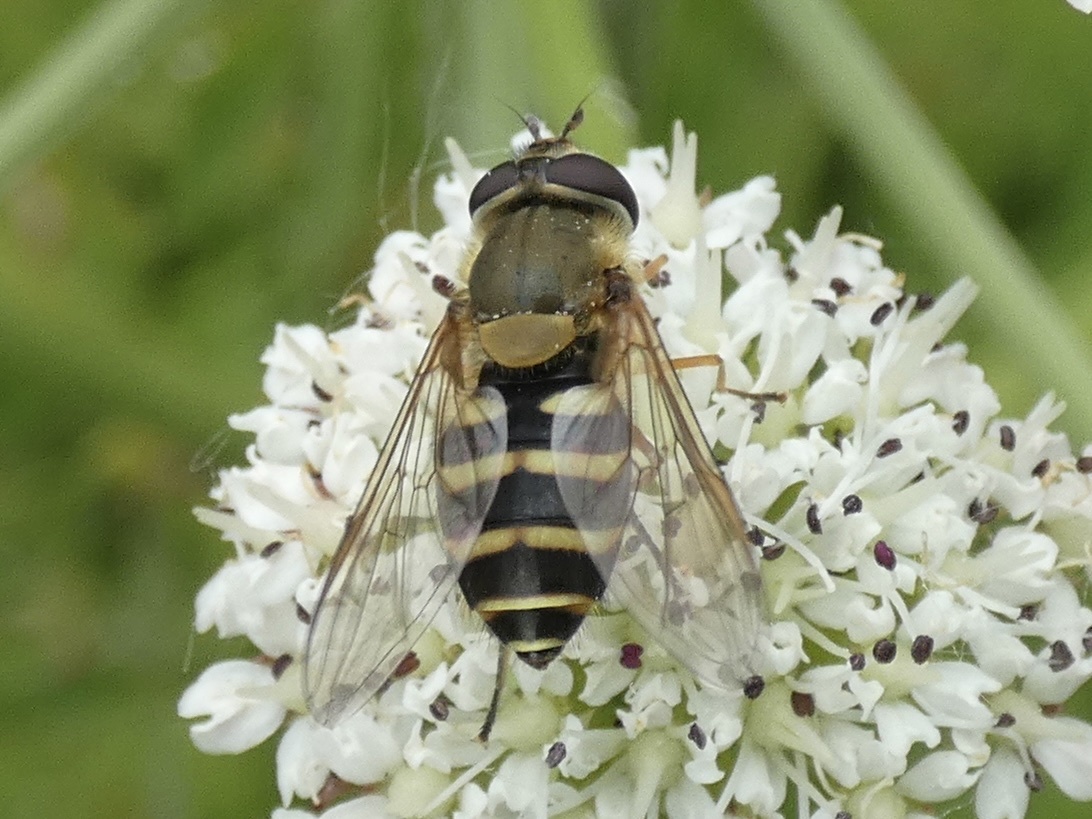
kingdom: Animalia
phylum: Arthropoda
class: Insecta
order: Diptera
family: Syrphidae
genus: Syrphus
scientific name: Syrphus torvus
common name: Hairy-eyed flower fly
